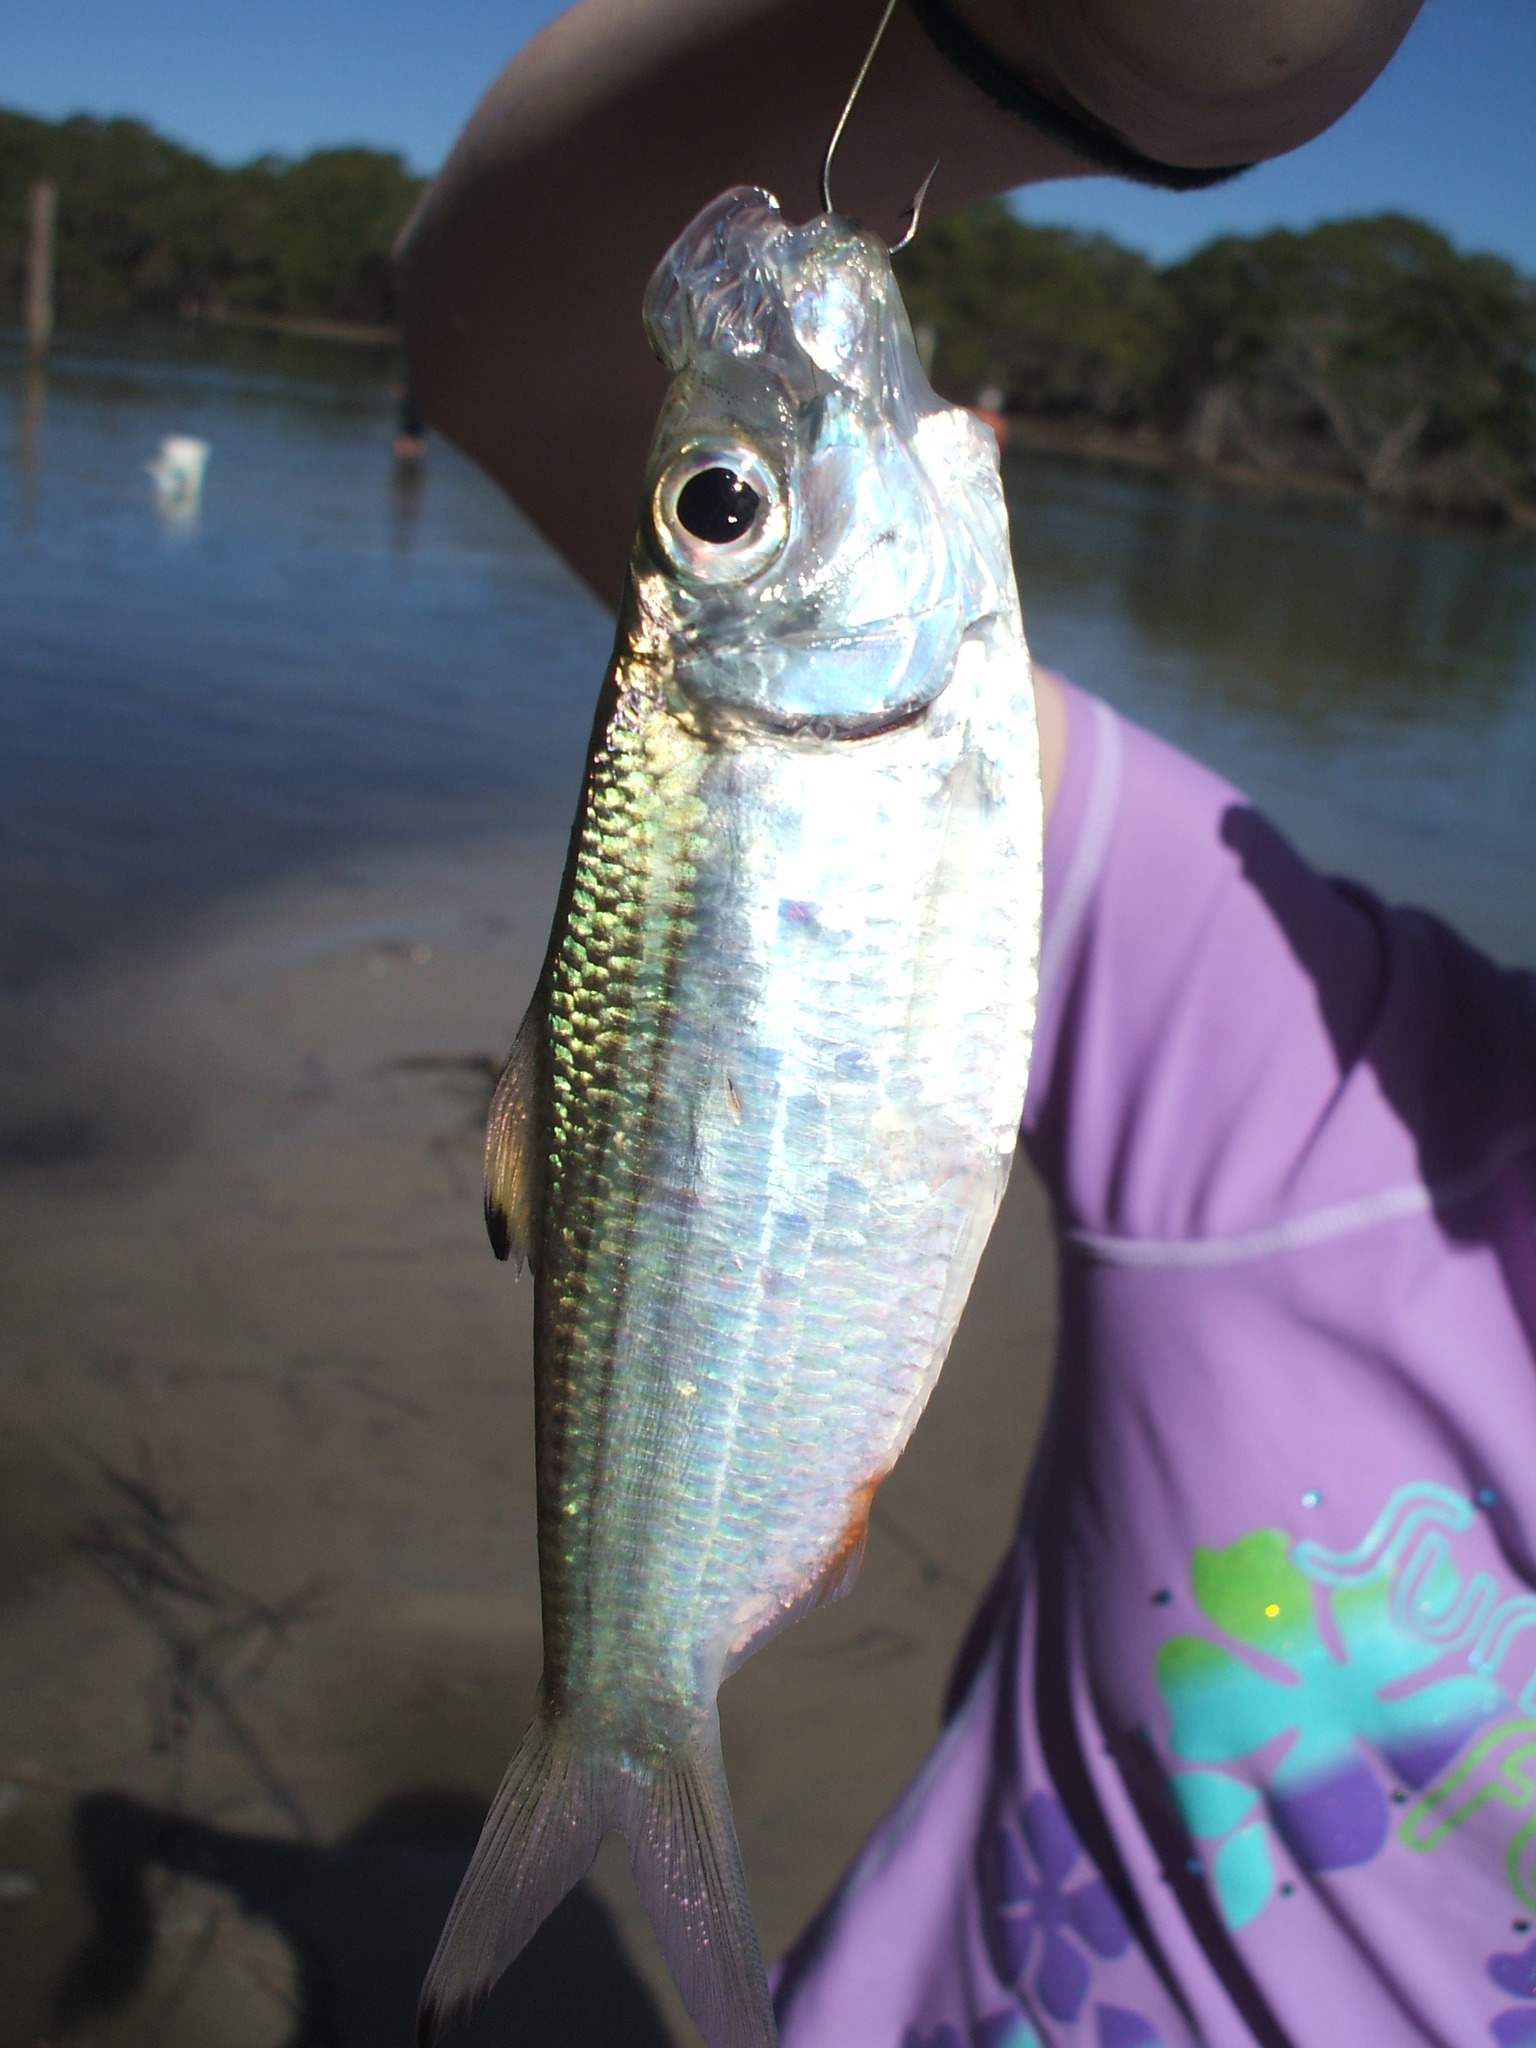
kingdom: Animalia
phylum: Chordata
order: Clupeiformes
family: Clupeidae
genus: Herklotsichthys
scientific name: Herklotsichthys castelnaui
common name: Castelnau's herring
